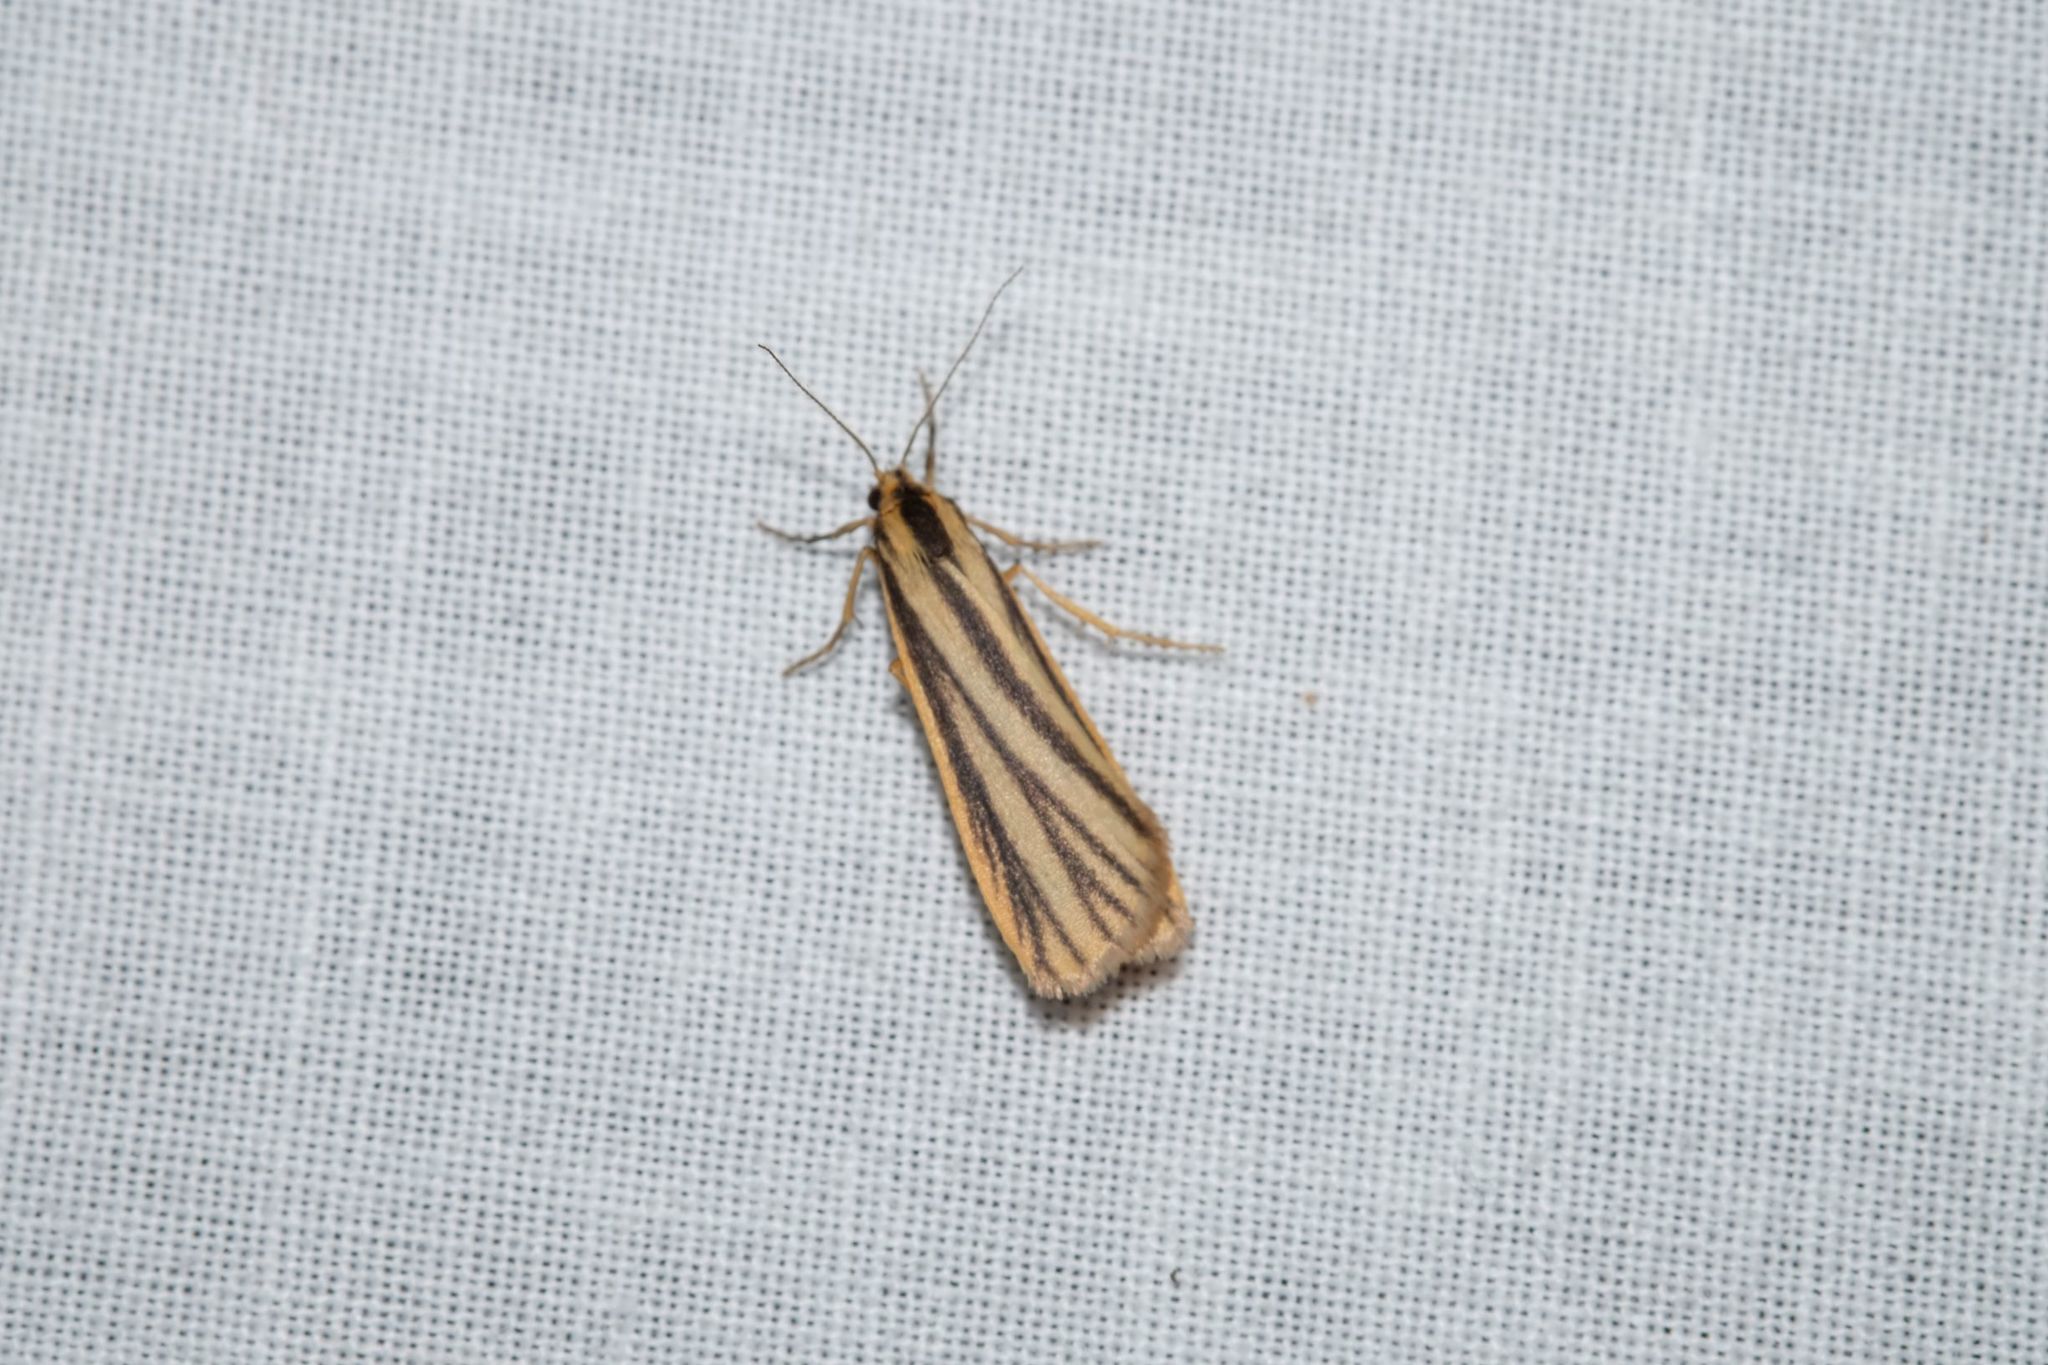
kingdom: Animalia
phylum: Arthropoda
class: Insecta
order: Lepidoptera
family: Erebidae
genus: Phaeophlebosia
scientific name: Phaeophlebosia furcifera
